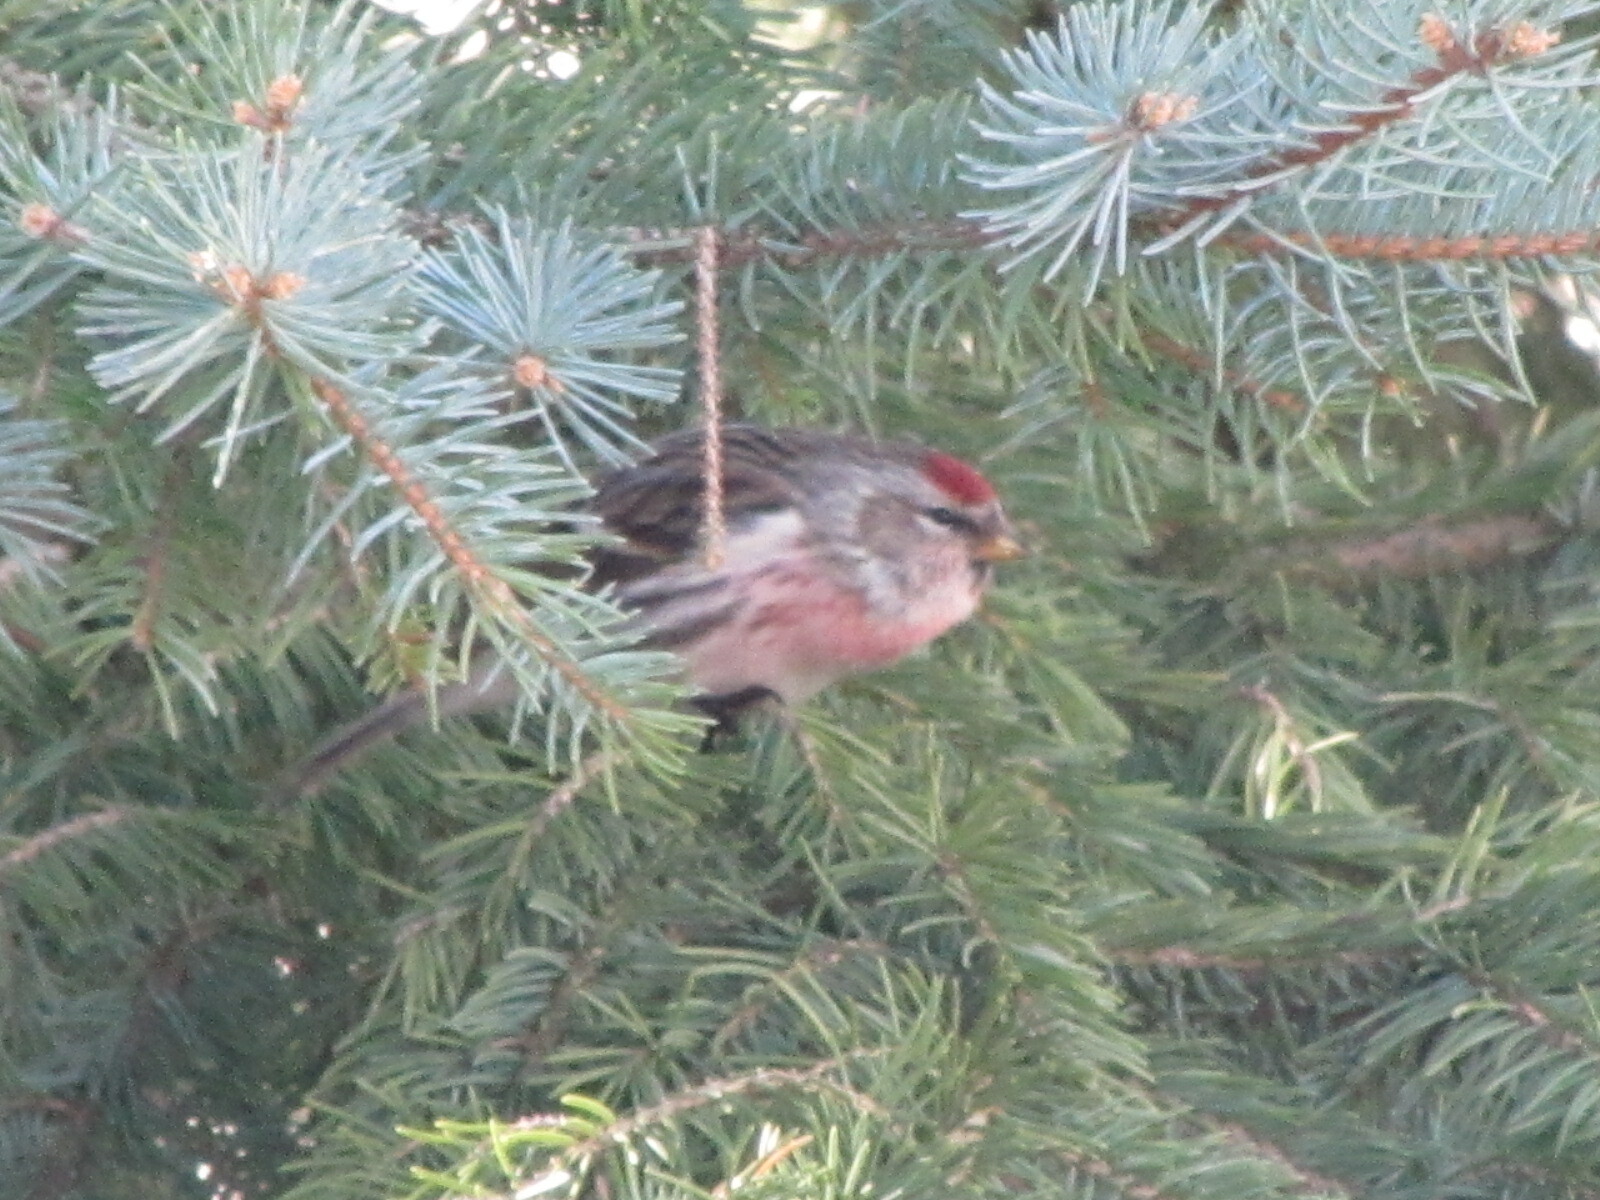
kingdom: Animalia
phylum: Chordata
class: Aves
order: Passeriformes
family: Fringillidae
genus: Acanthis
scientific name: Acanthis flammea
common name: Common redpoll
